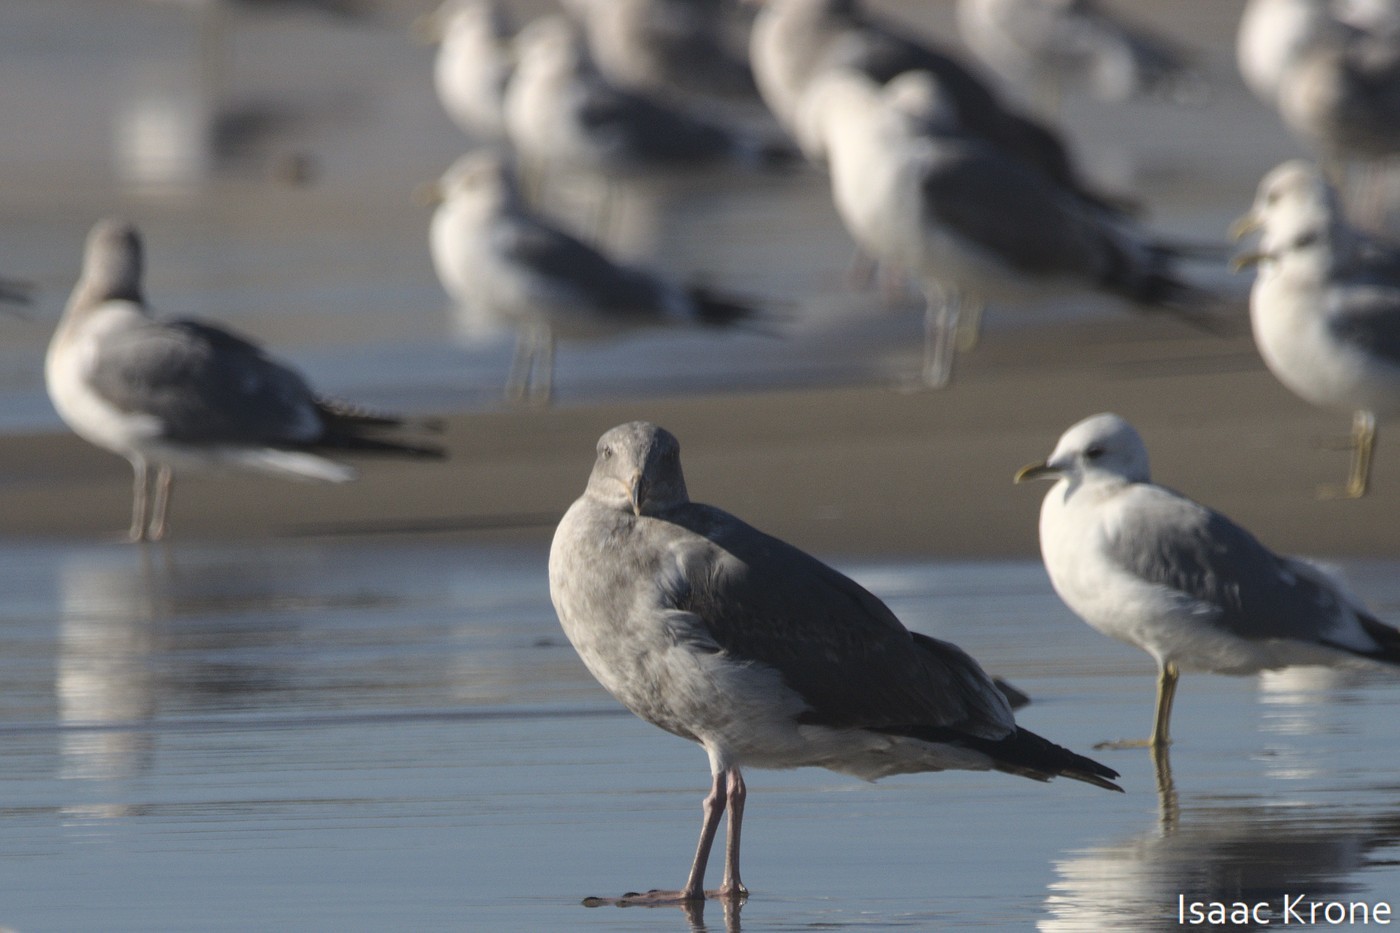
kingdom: Animalia
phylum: Chordata
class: Aves
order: Charadriiformes
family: Laridae
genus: Larus
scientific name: Larus occidentalis
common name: Western gull
